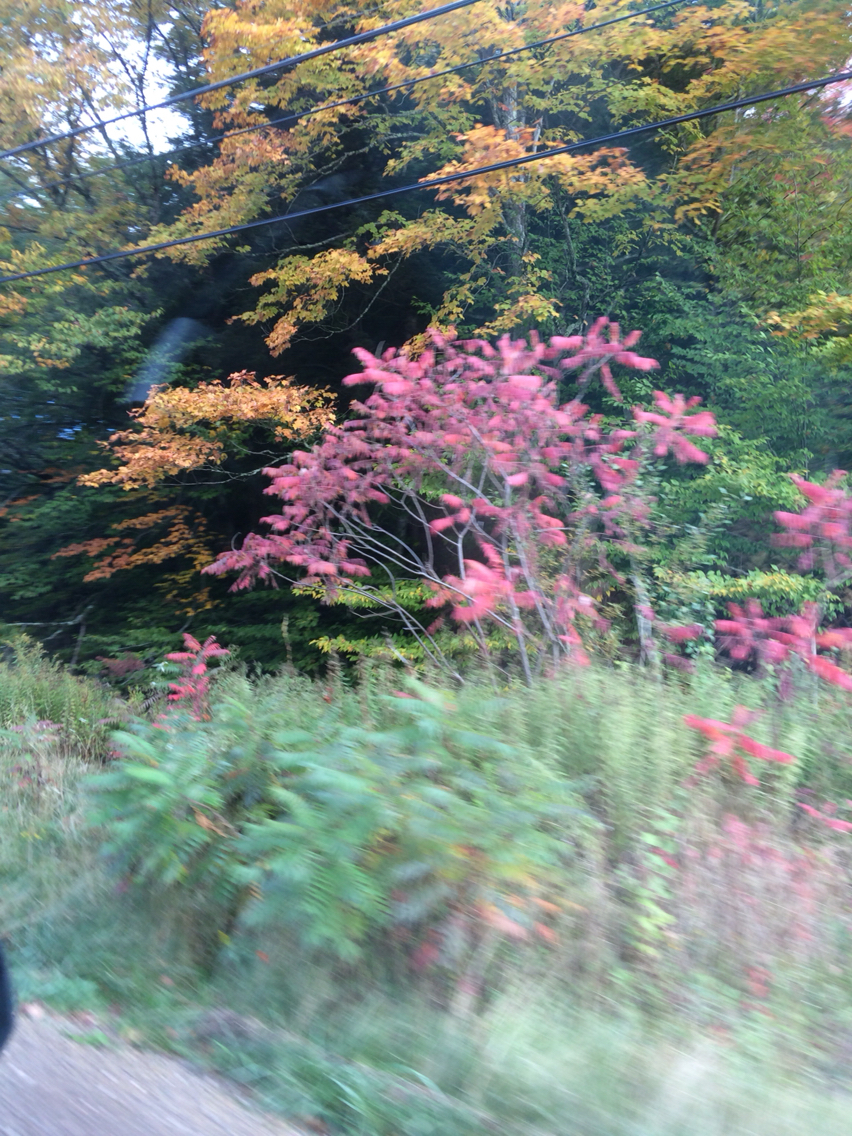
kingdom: Plantae
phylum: Tracheophyta
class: Magnoliopsida
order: Sapindales
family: Anacardiaceae
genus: Rhus
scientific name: Rhus typhina
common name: Staghorn sumac
